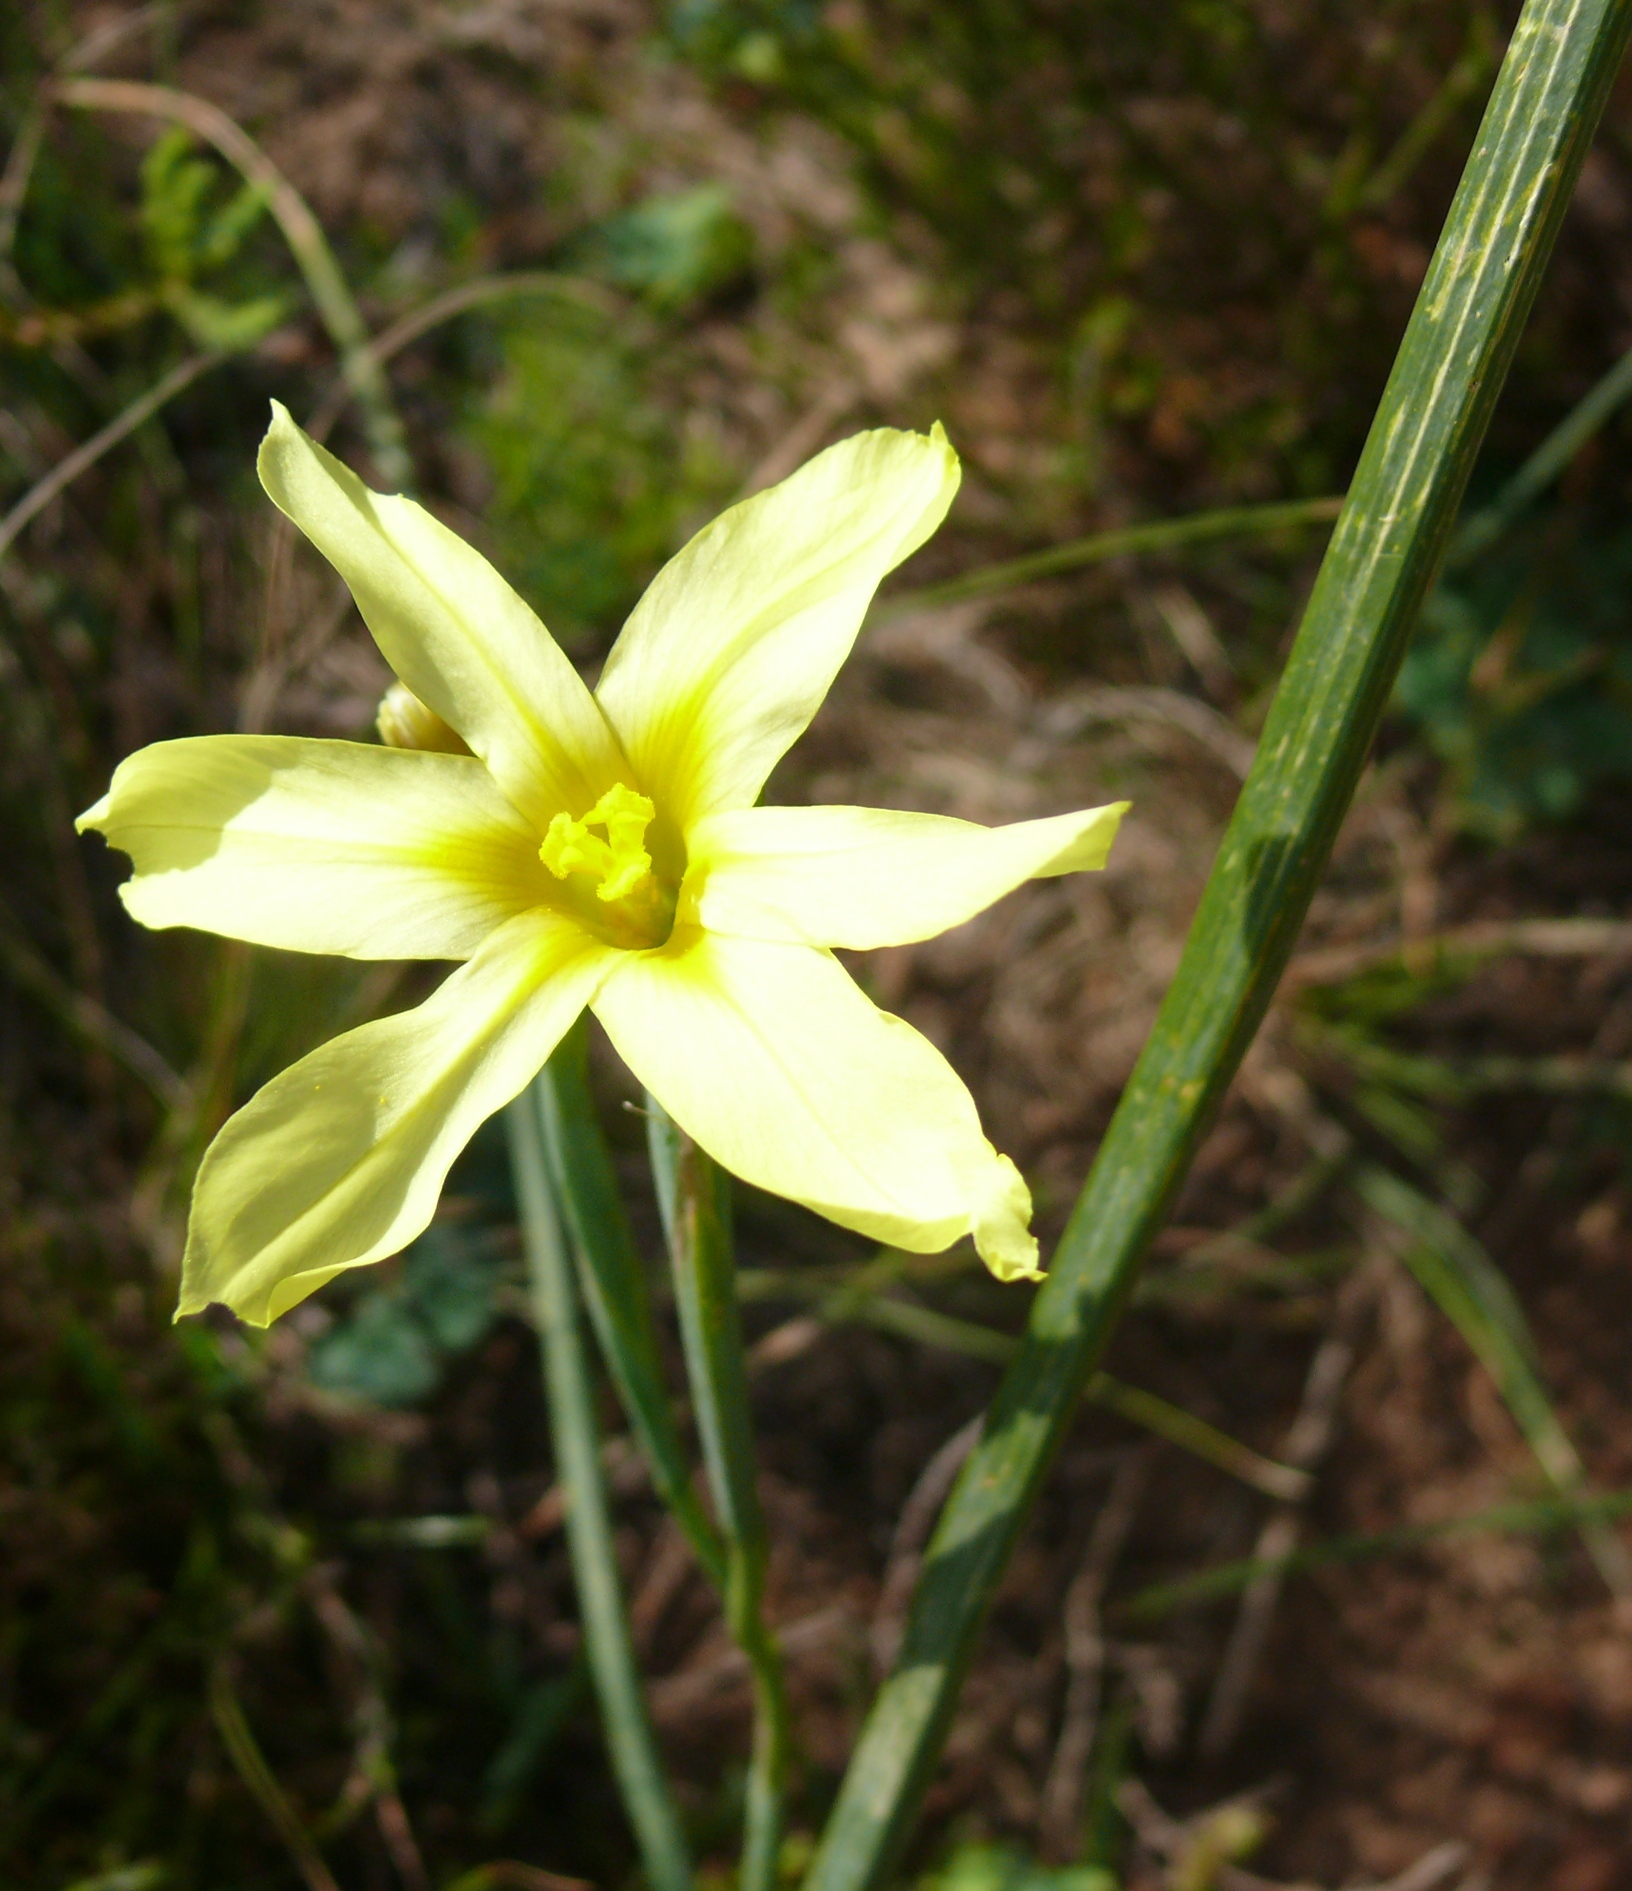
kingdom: Plantae
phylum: Tracheophyta
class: Liliopsida
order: Asparagales
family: Iridaceae
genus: Moraea
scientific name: Moraea collina
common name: Cape-tulip
